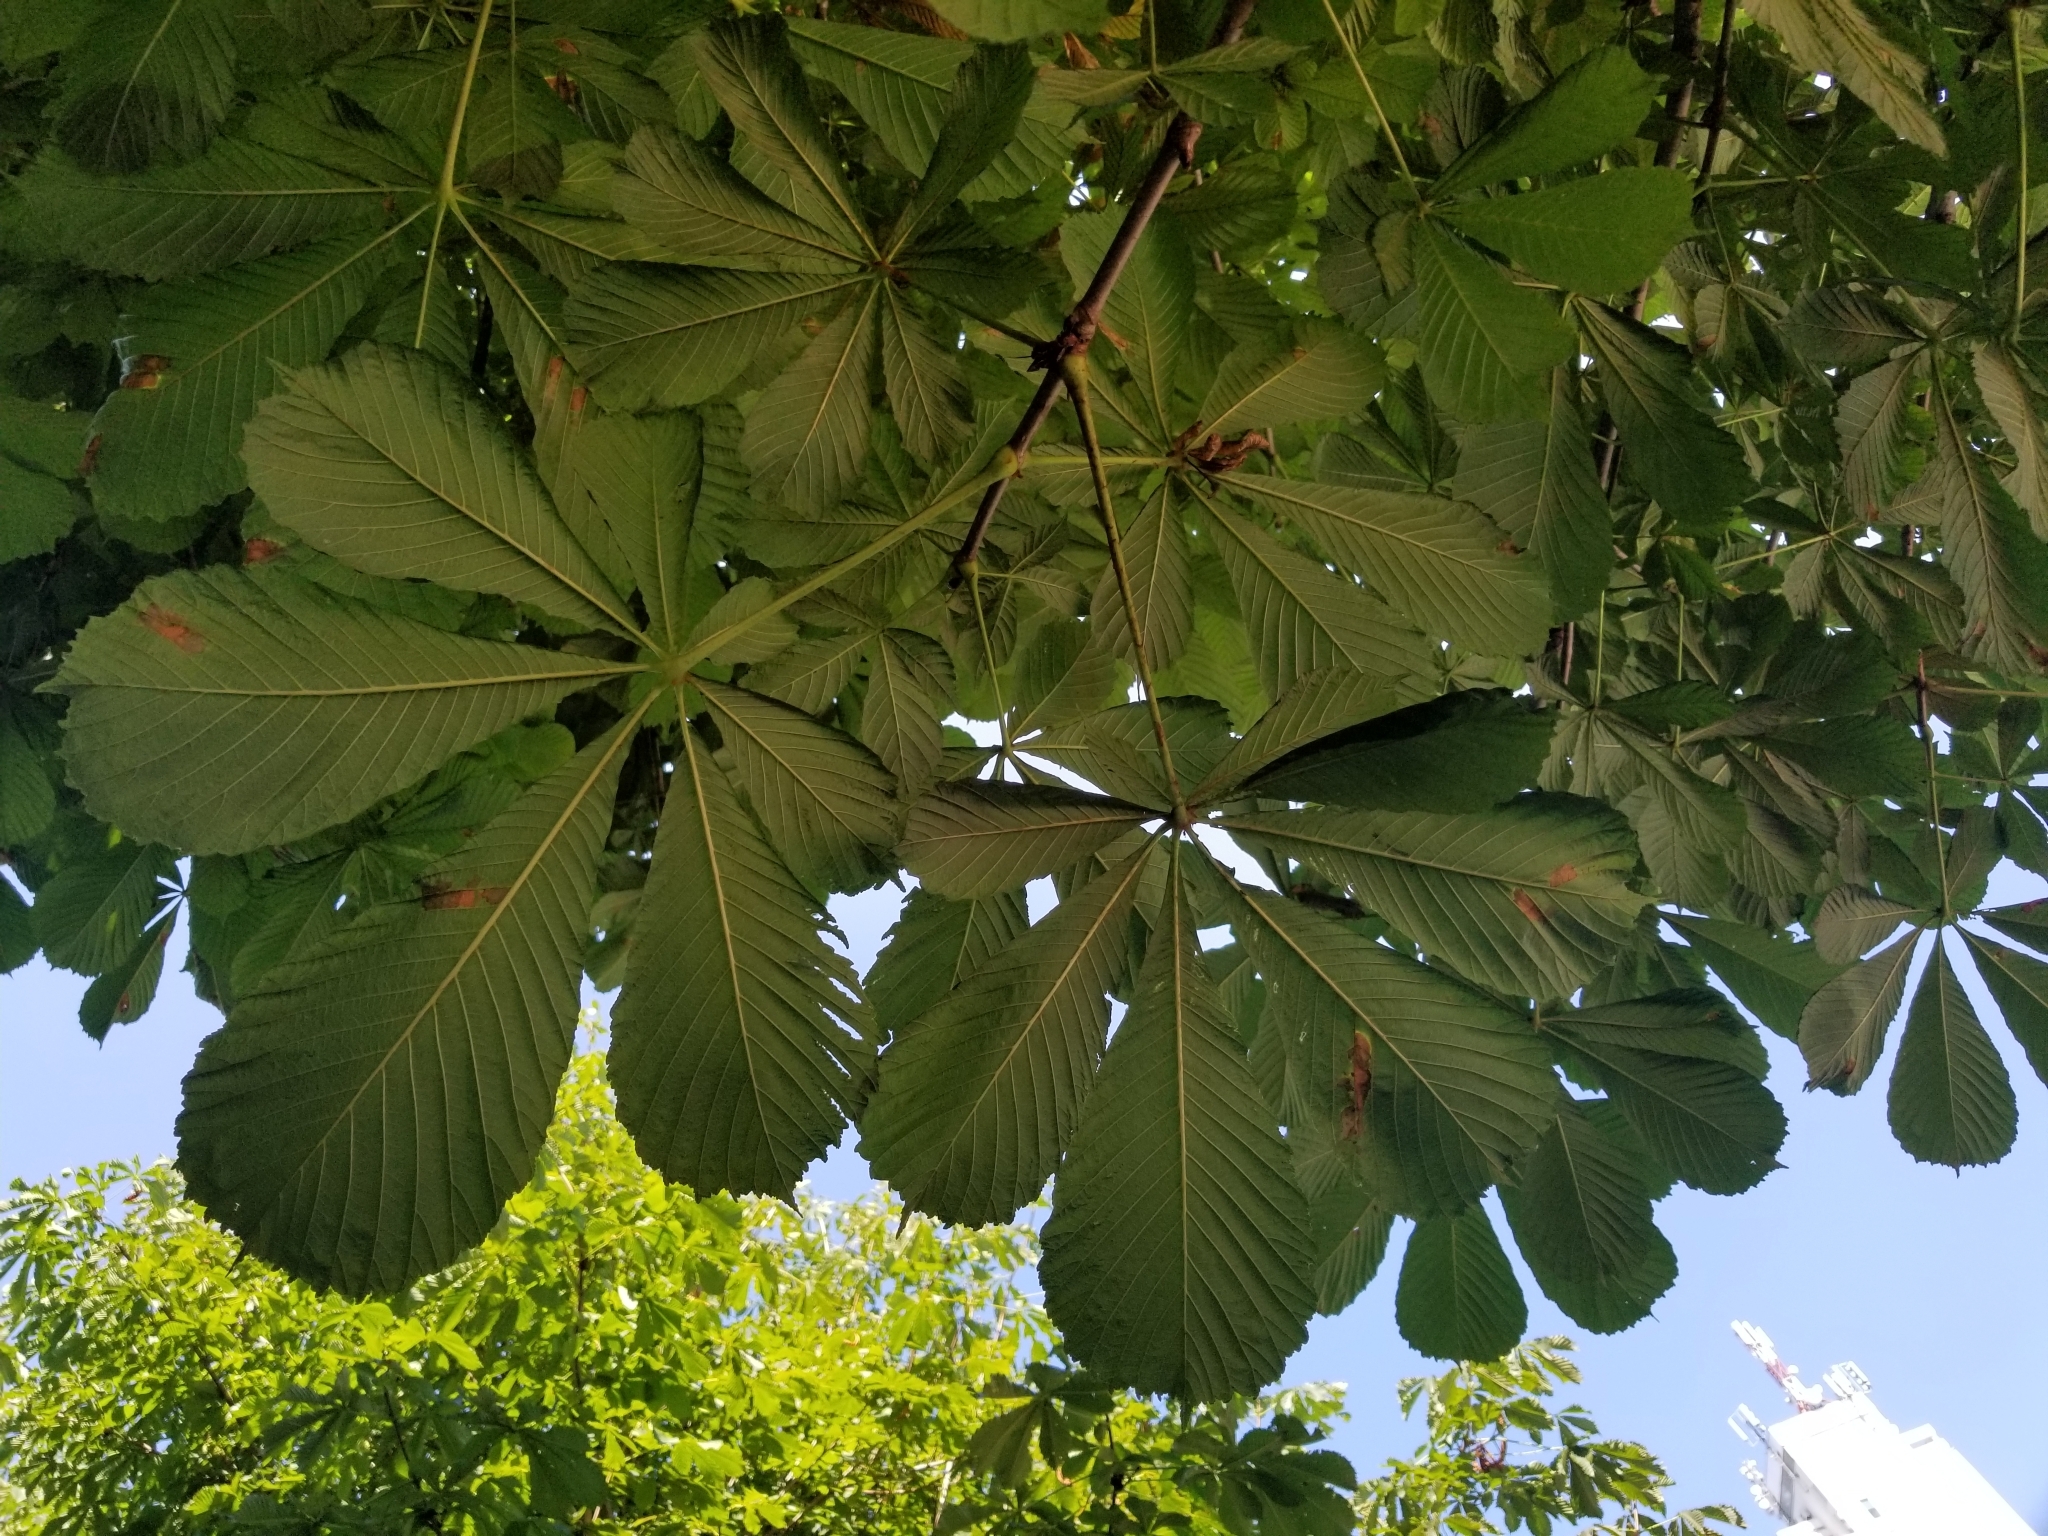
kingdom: Plantae
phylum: Tracheophyta
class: Magnoliopsida
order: Sapindales
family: Sapindaceae
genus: Aesculus
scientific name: Aesculus hippocastanum
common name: Horse-chestnut
